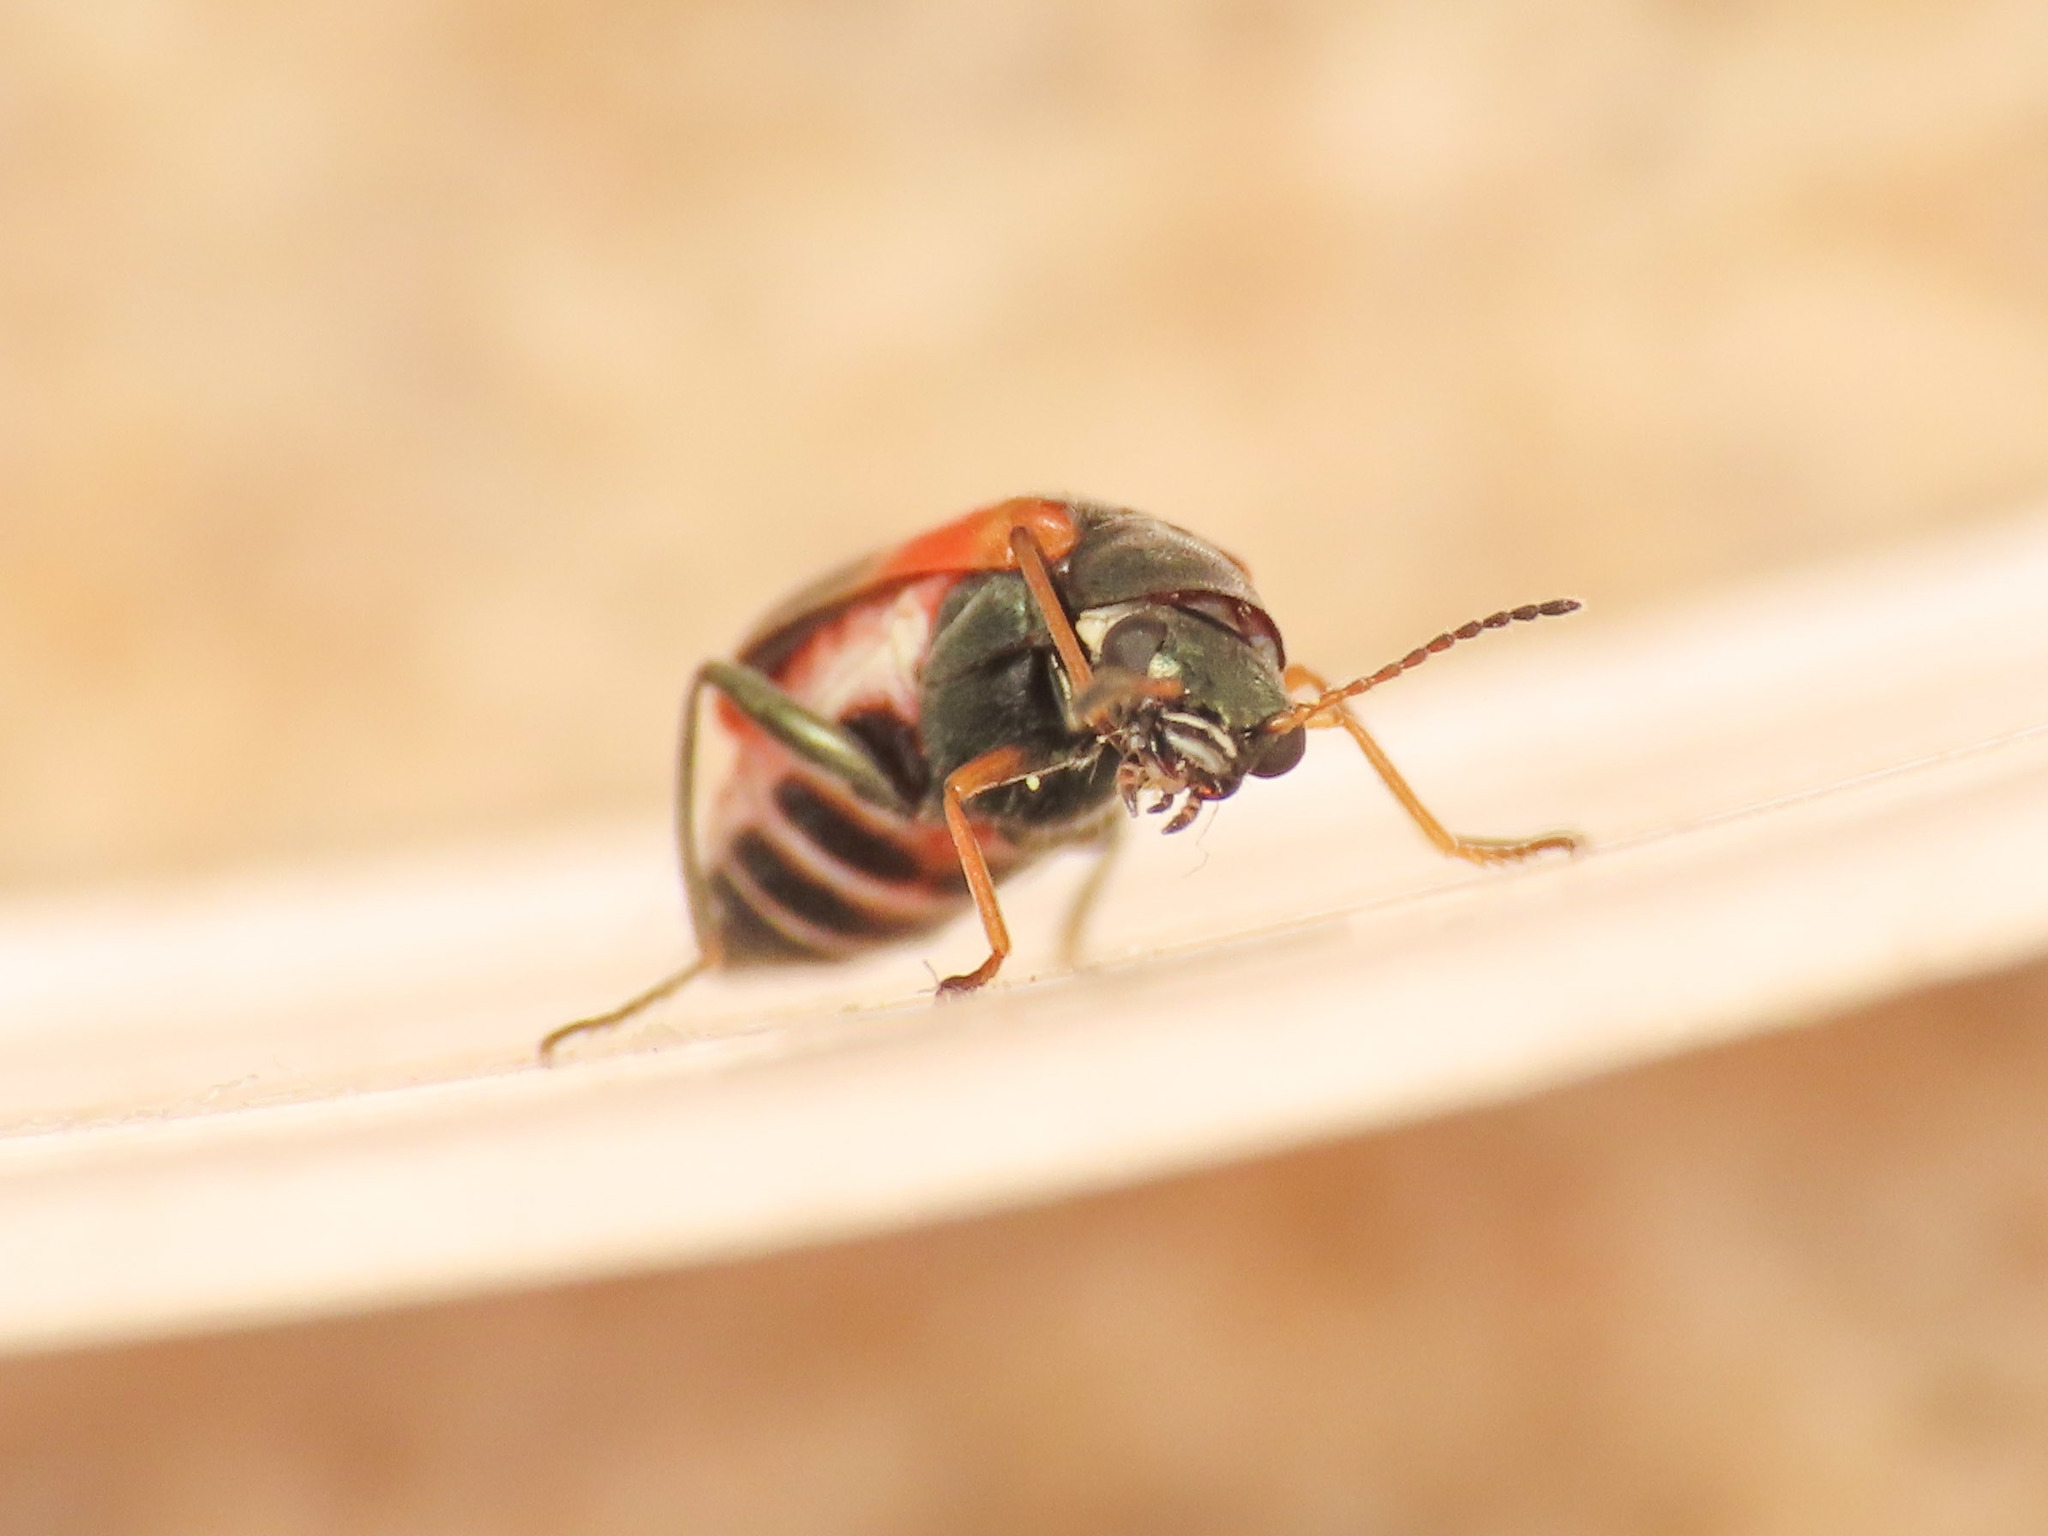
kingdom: Animalia
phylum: Arthropoda
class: Insecta
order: Coleoptera
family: Melyridae
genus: Anthocomus
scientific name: Anthocomus equestris
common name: Black-banded soft-winged flower beetle
